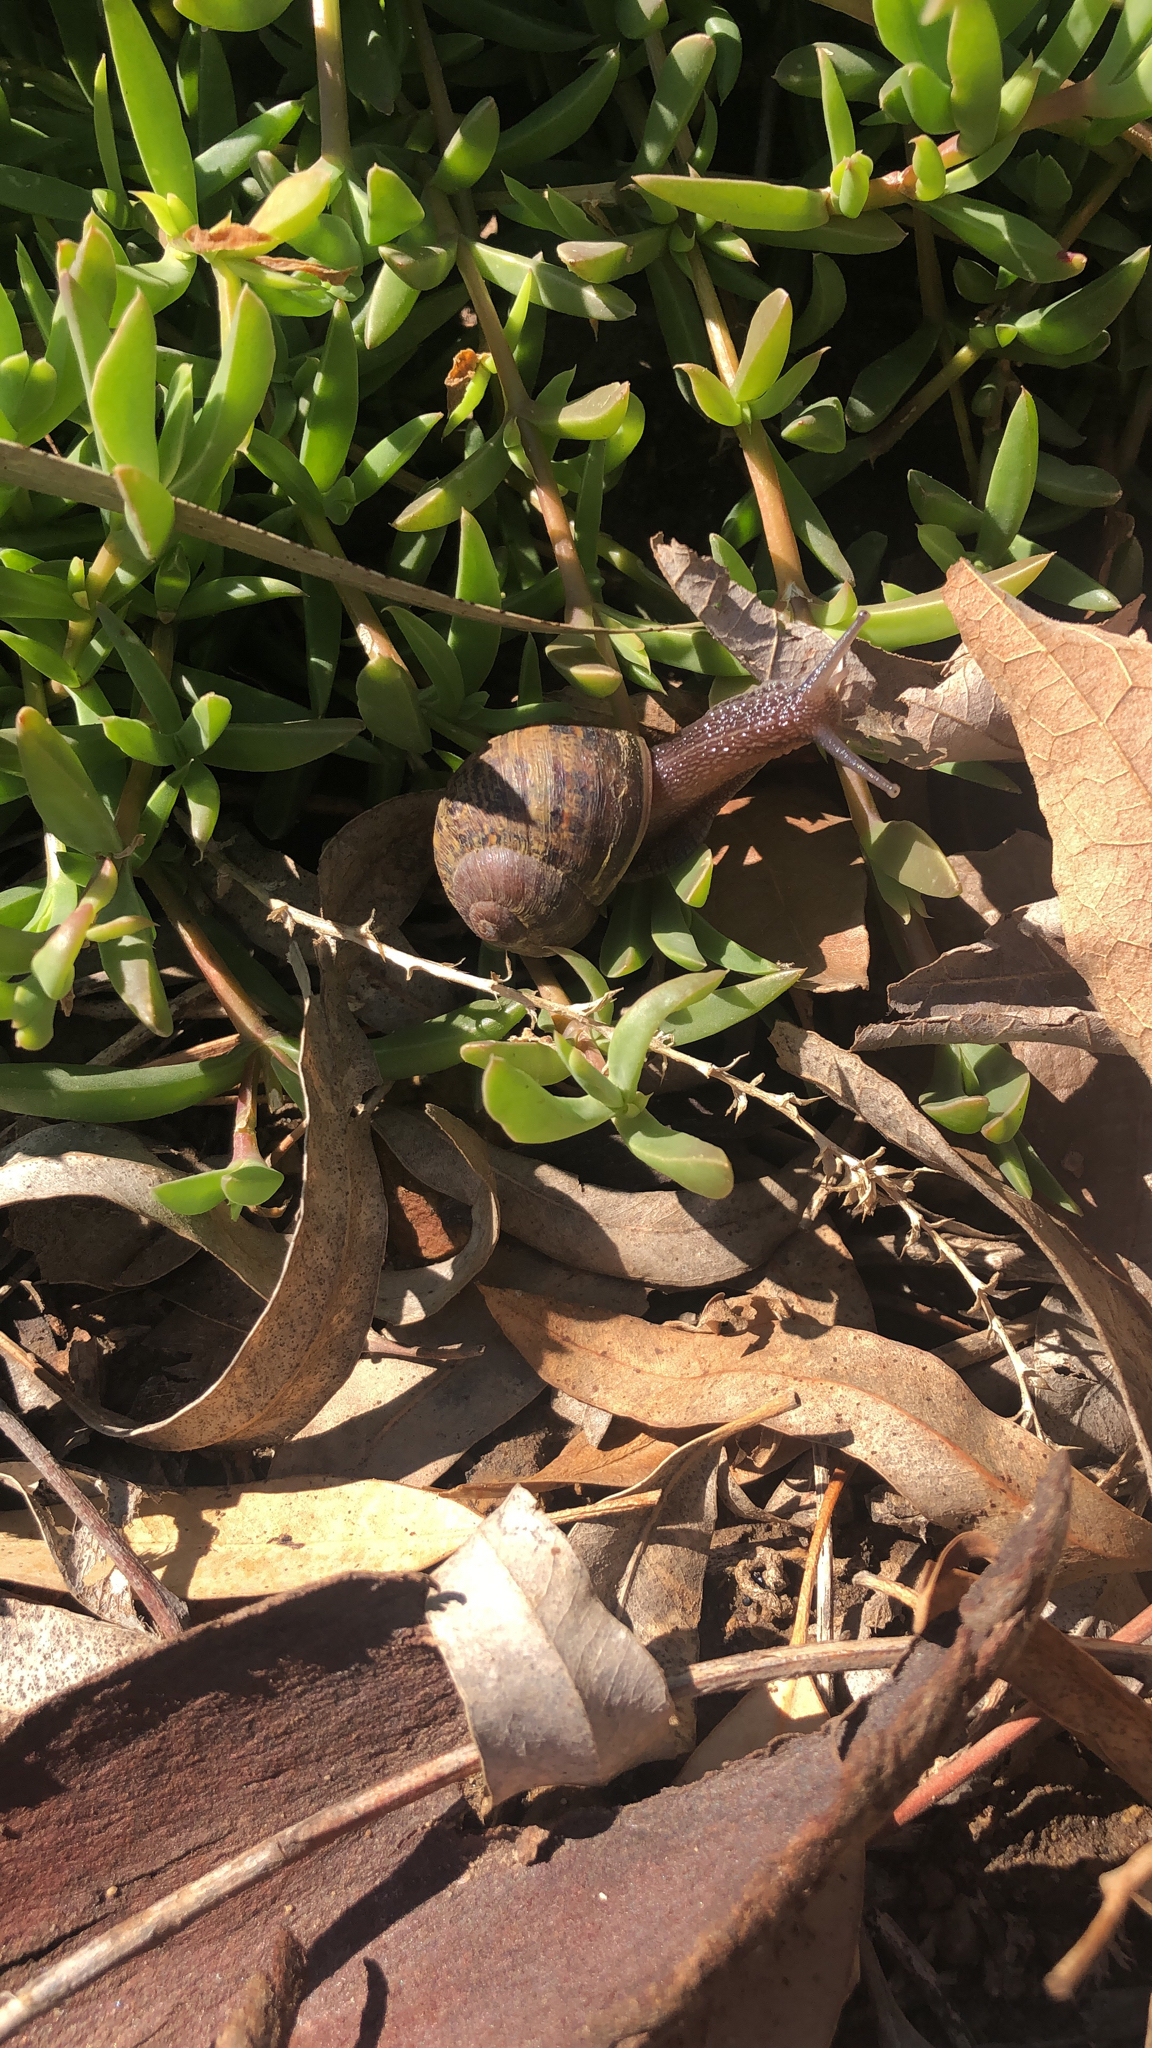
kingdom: Animalia
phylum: Mollusca
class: Gastropoda
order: Stylommatophora
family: Helicidae
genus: Cornu
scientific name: Cornu aspersum
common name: Brown garden snail
